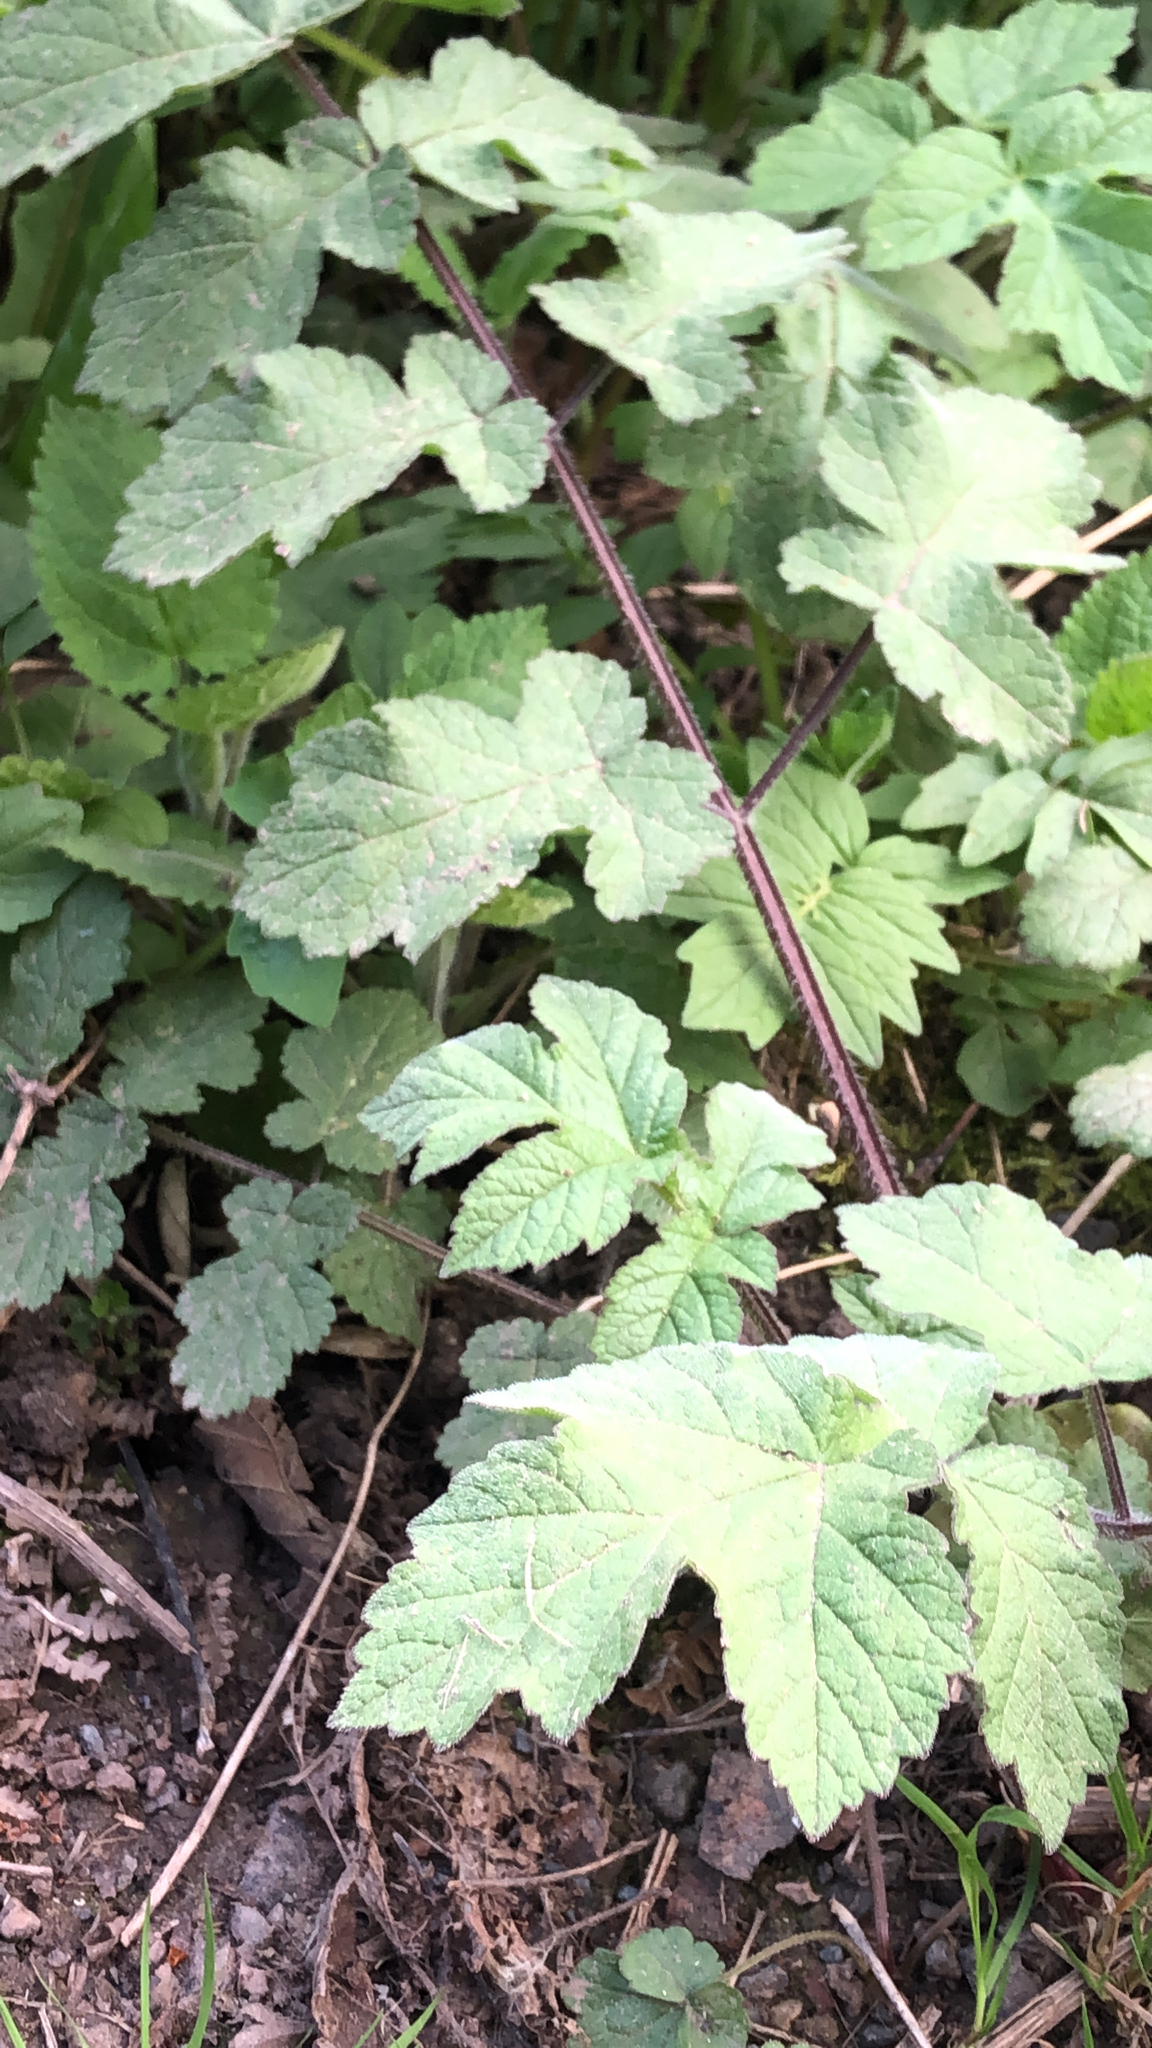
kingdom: Plantae
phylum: Tracheophyta
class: Magnoliopsida
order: Apiales
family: Apiaceae
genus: Heracleum
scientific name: Heracleum sphondylium
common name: Hogweed
